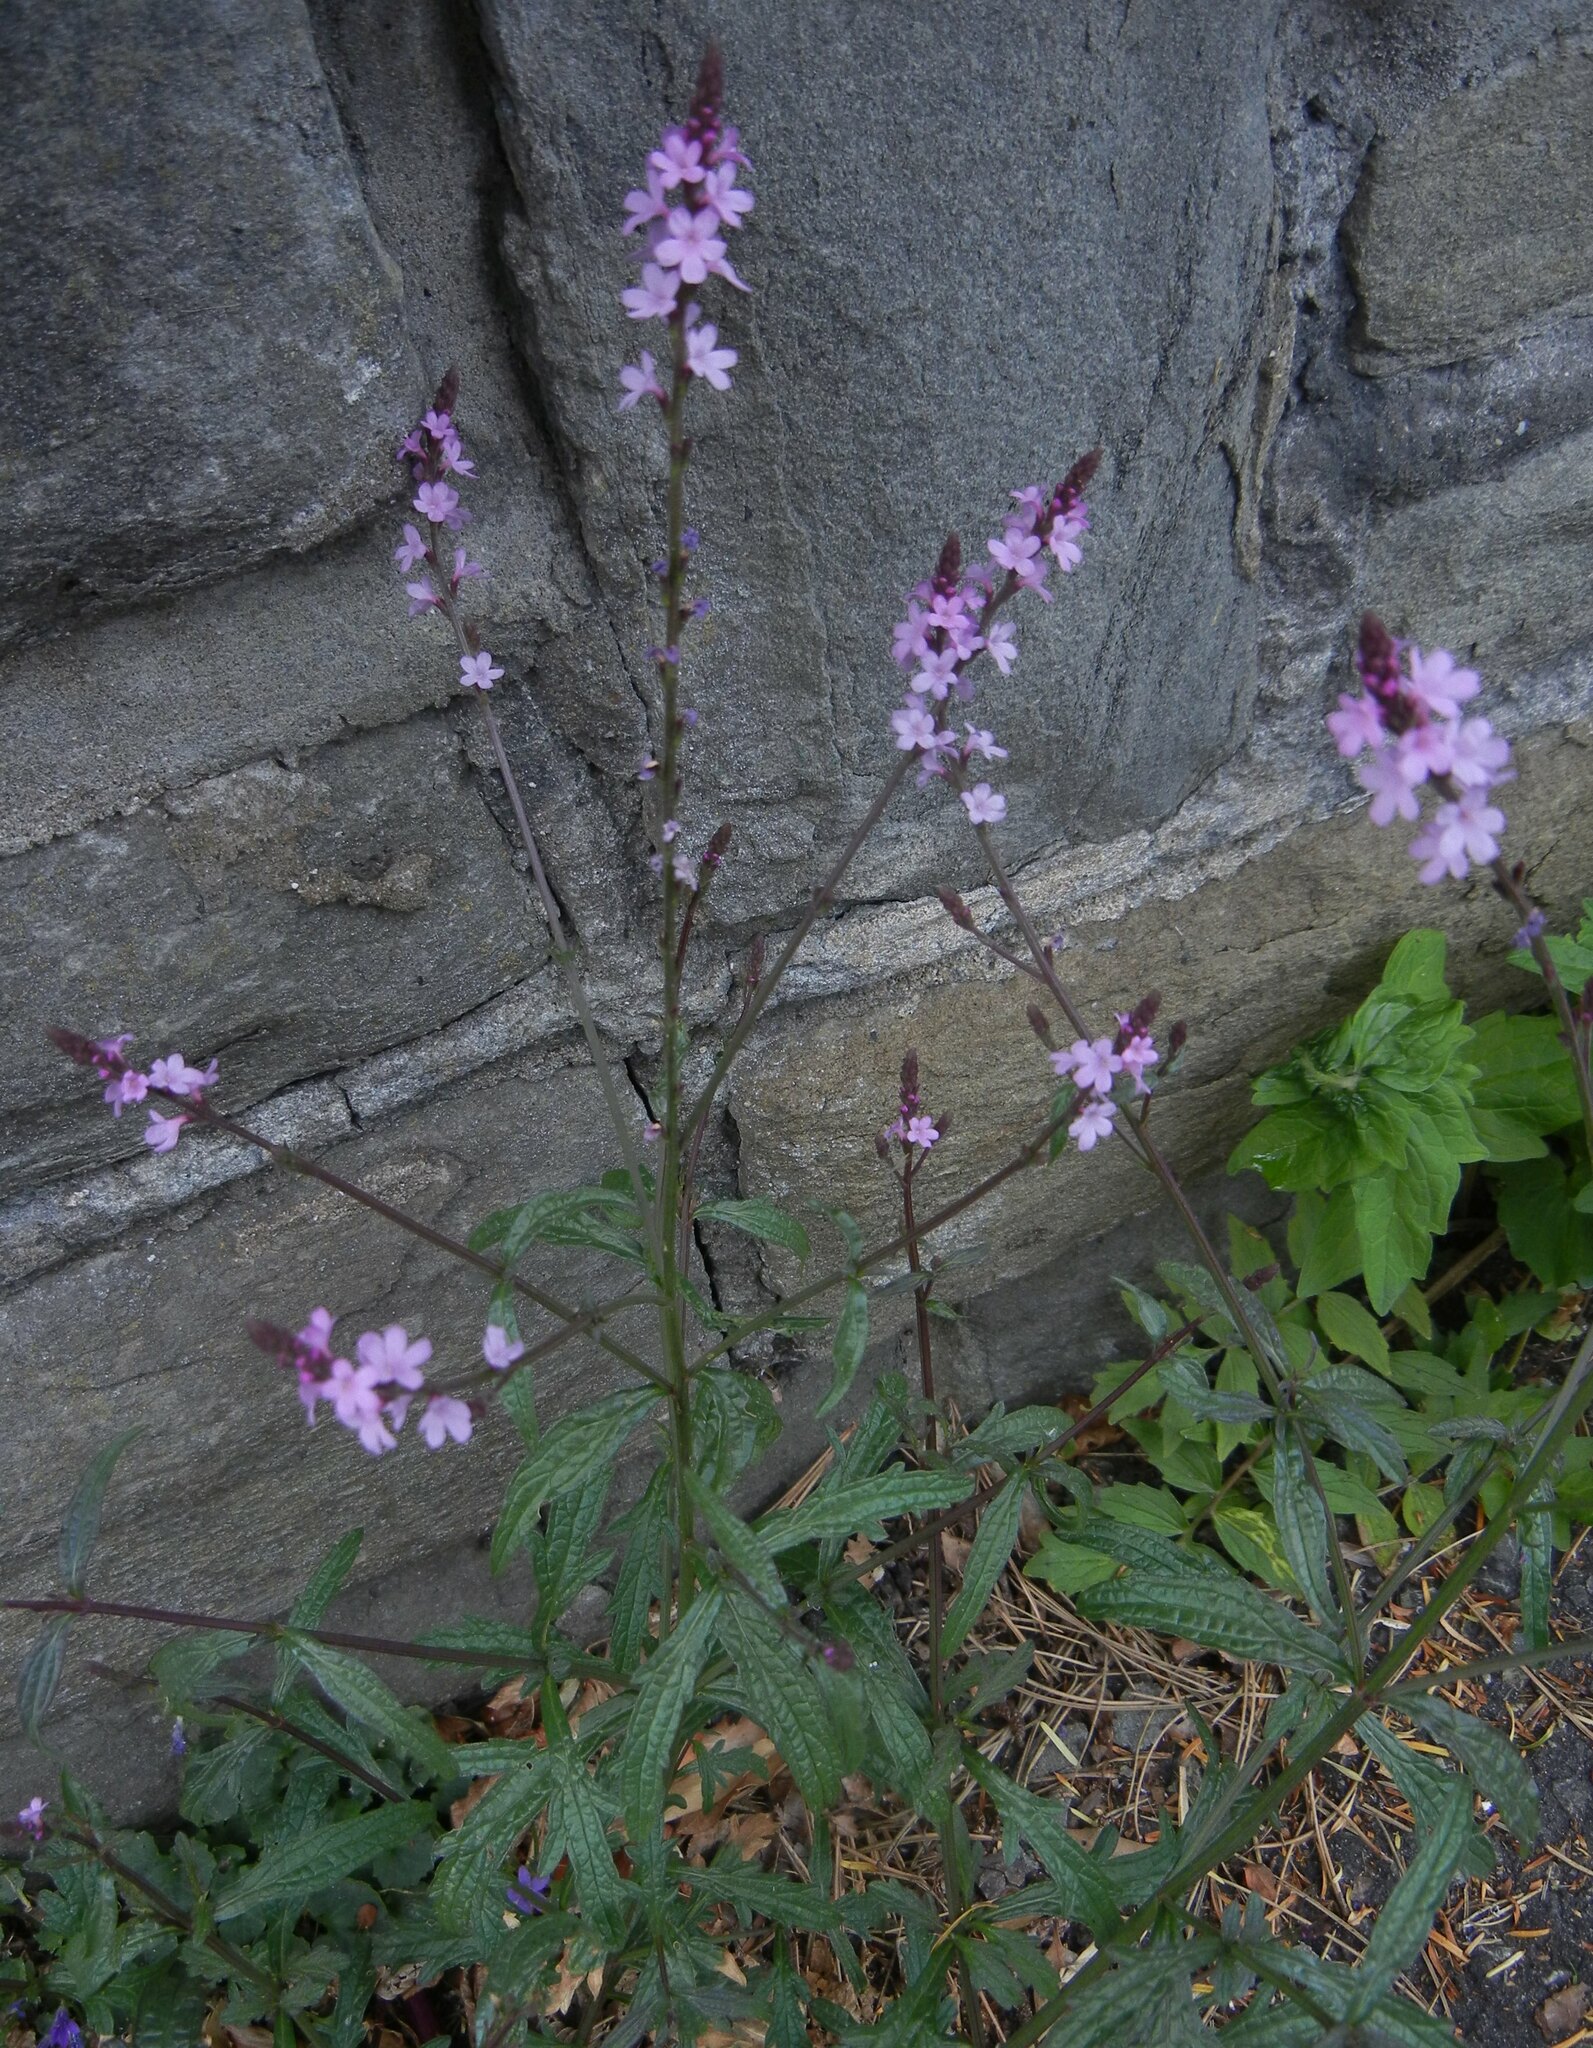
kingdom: Plantae
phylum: Tracheophyta
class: Magnoliopsida
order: Lamiales
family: Verbenaceae
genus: Verbena
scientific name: Verbena officinalis
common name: Vervain
